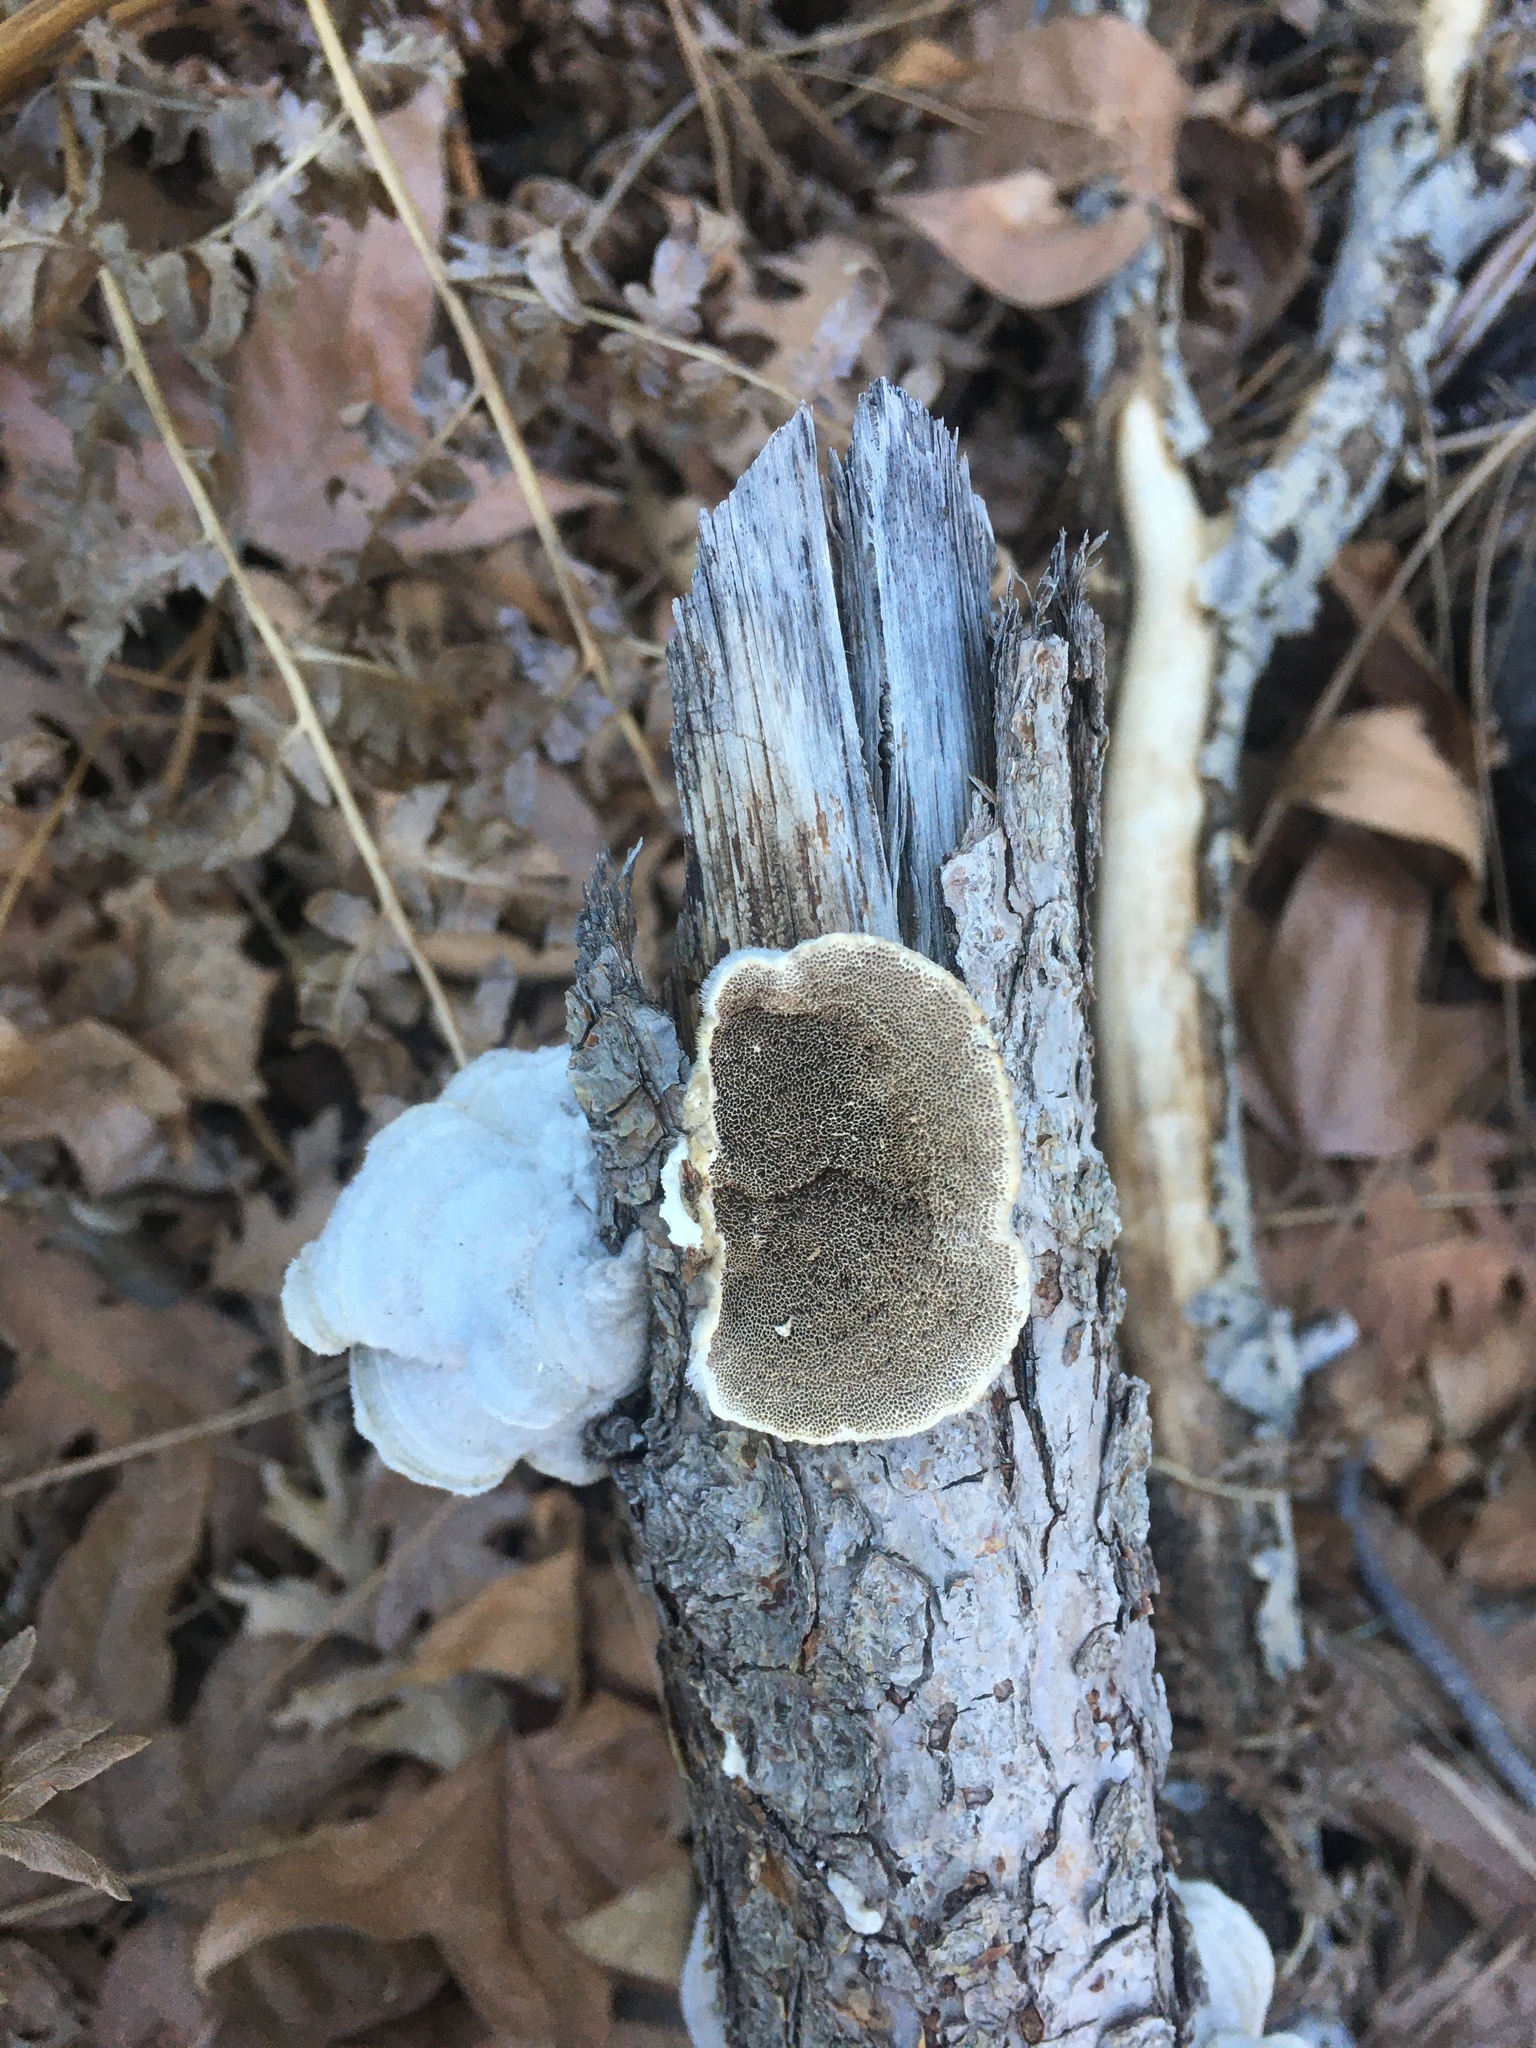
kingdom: Fungi
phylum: Basidiomycota
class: Agaricomycetes
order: Polyporales
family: Polyporaceae
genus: Trametes
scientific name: Trametes hirsuta
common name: Hairy bracket
